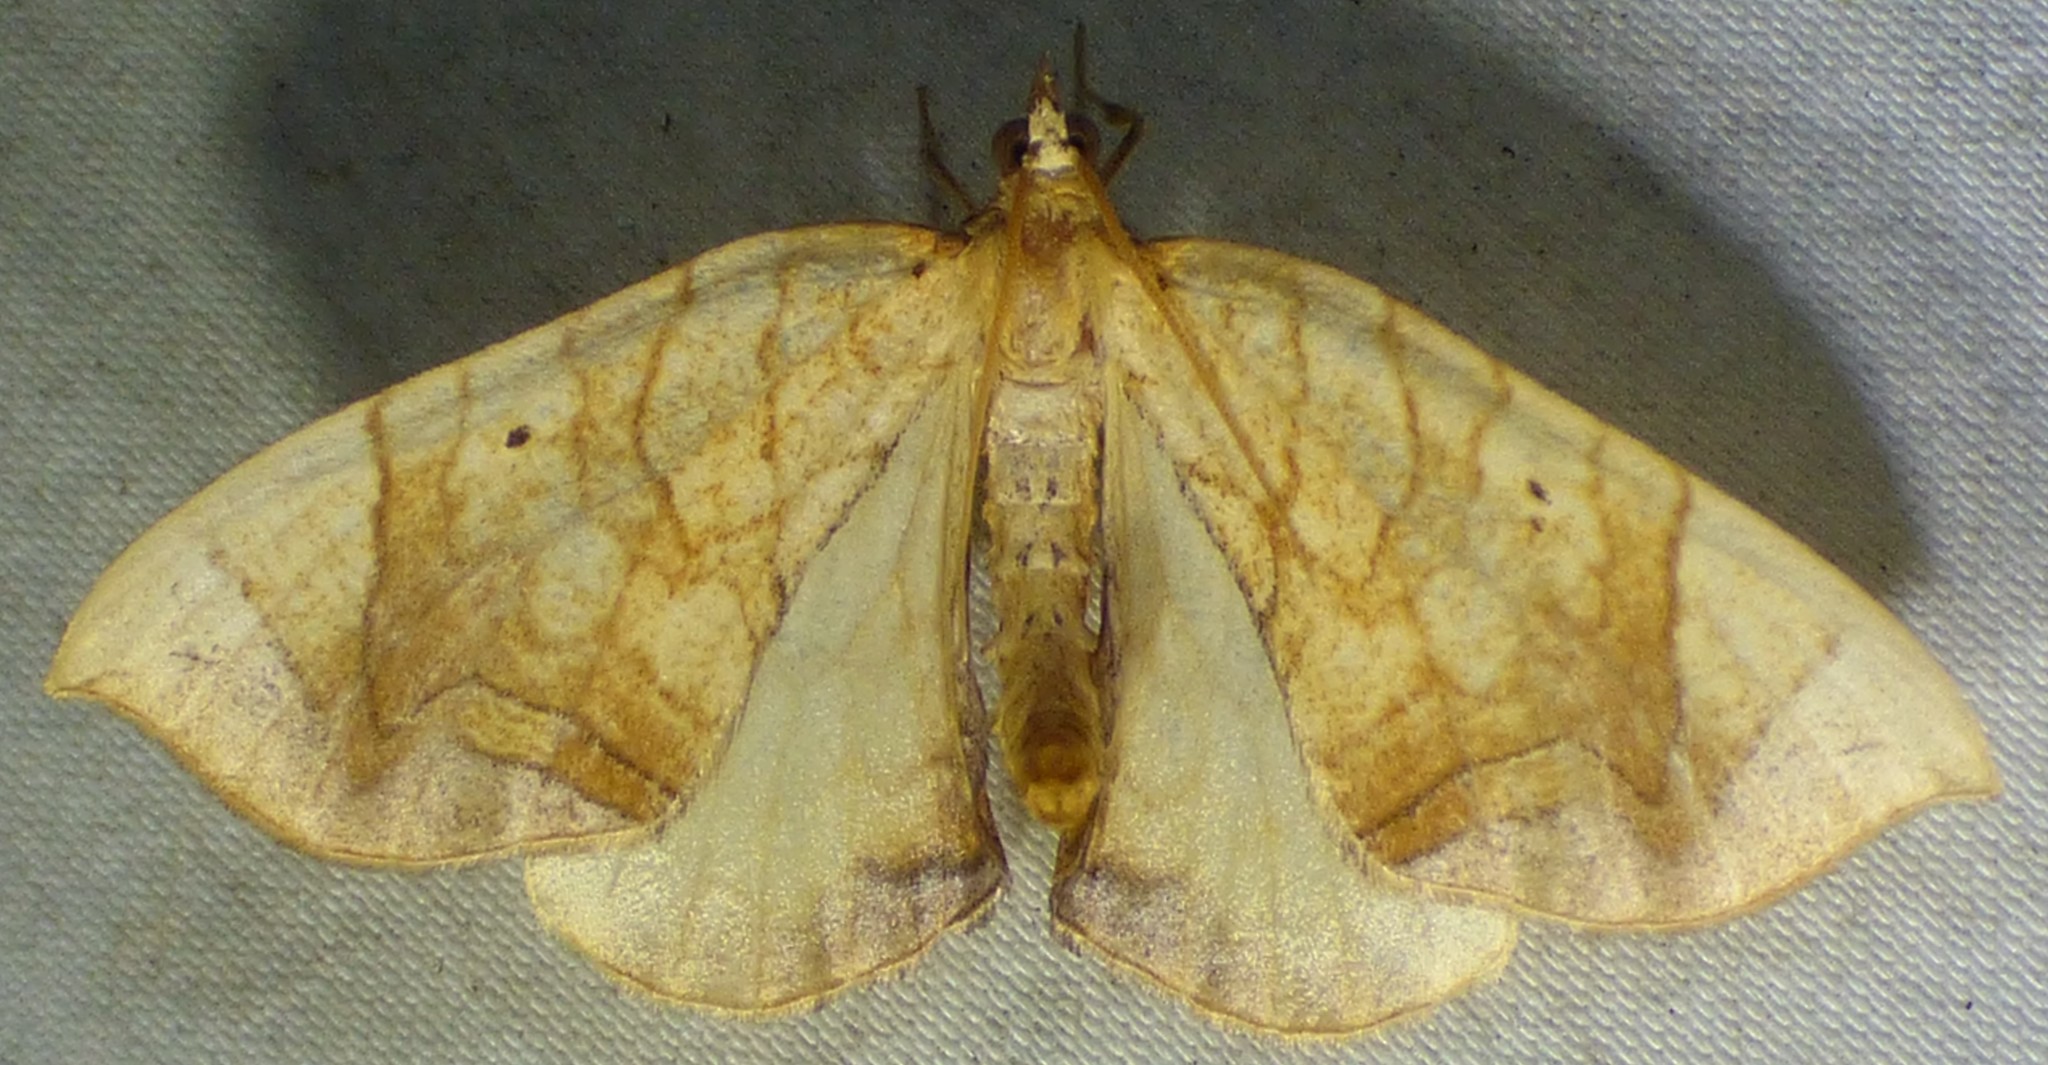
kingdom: Animalia
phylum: Arthropoda
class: Insecta
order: Lepidoptera
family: Geometridae
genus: Eulithis
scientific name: Eulithis
